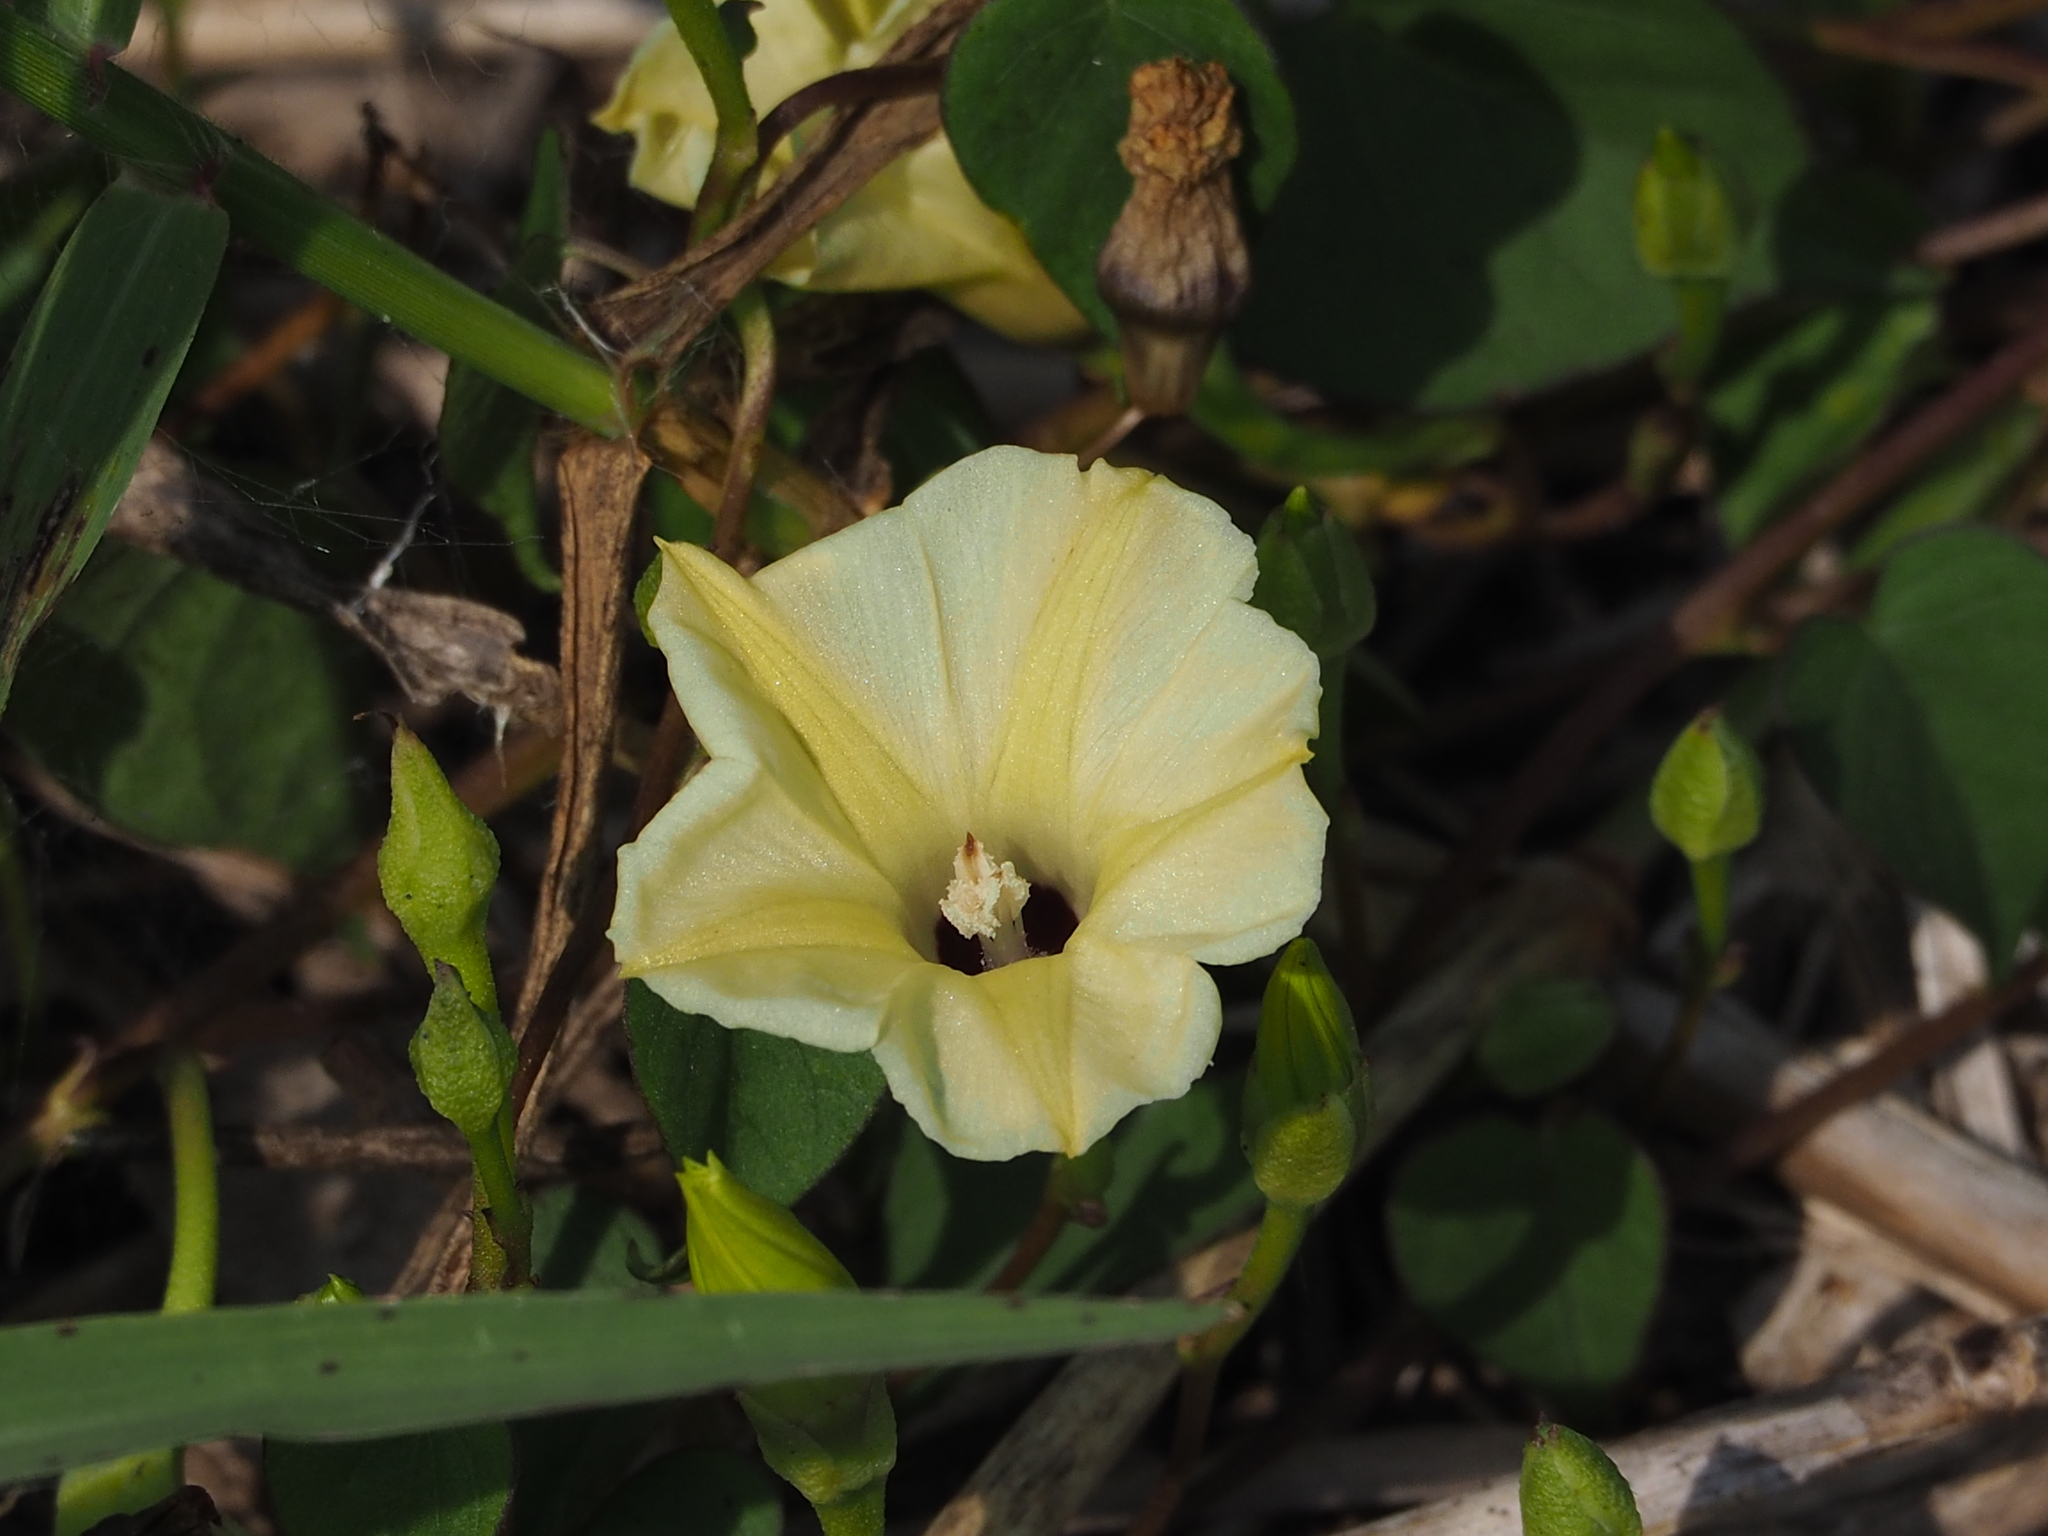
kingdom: Plantae
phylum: Tracheophyta
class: Magnoliopsida
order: Solanales
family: Convolvulaceae
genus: Ipomoea
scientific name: Ipomoea obscura
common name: Obscure morning-glory
